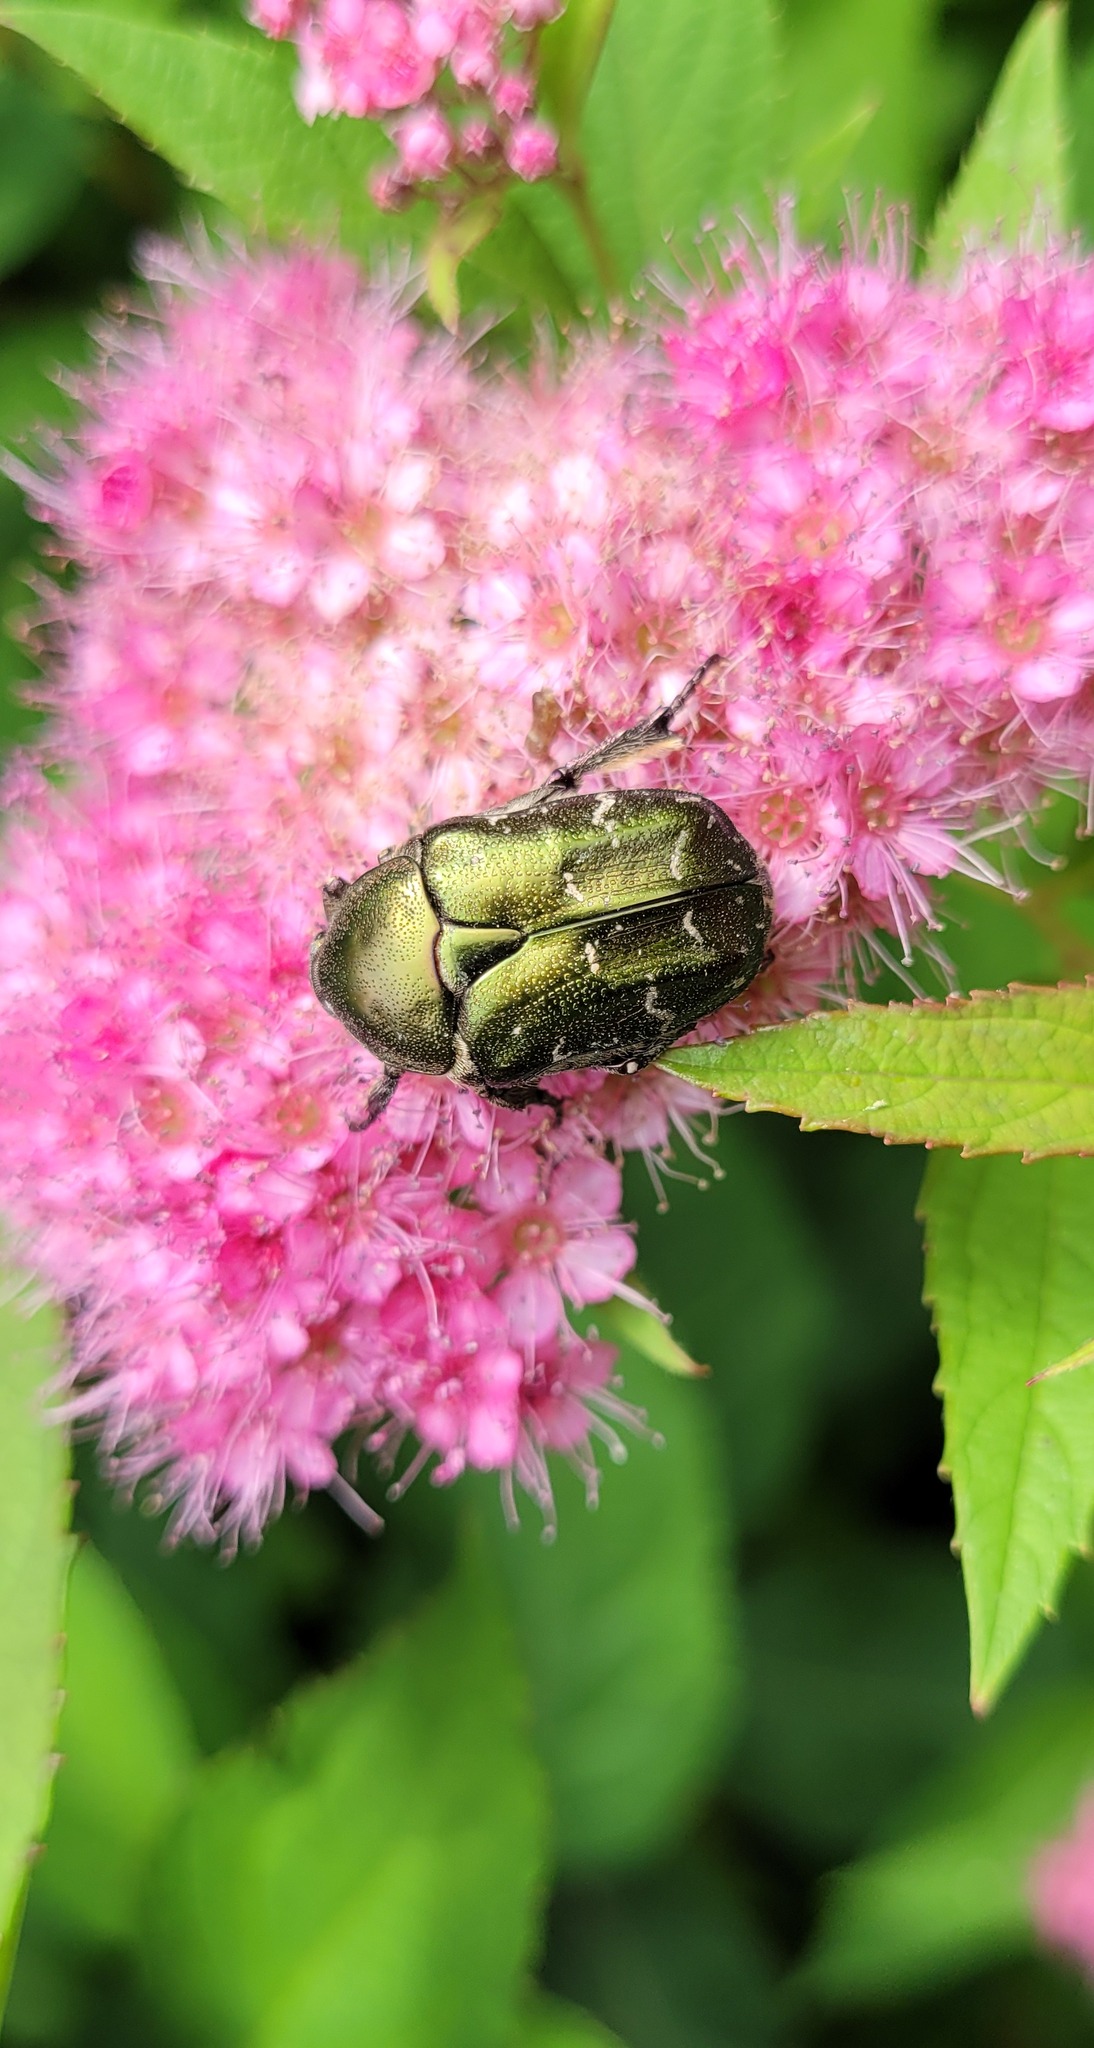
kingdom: Animalia
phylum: Arthropoda
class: Insecta
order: Coleoptera
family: Scarabaeidae
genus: Protaetia
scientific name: Protaetia cuprea
